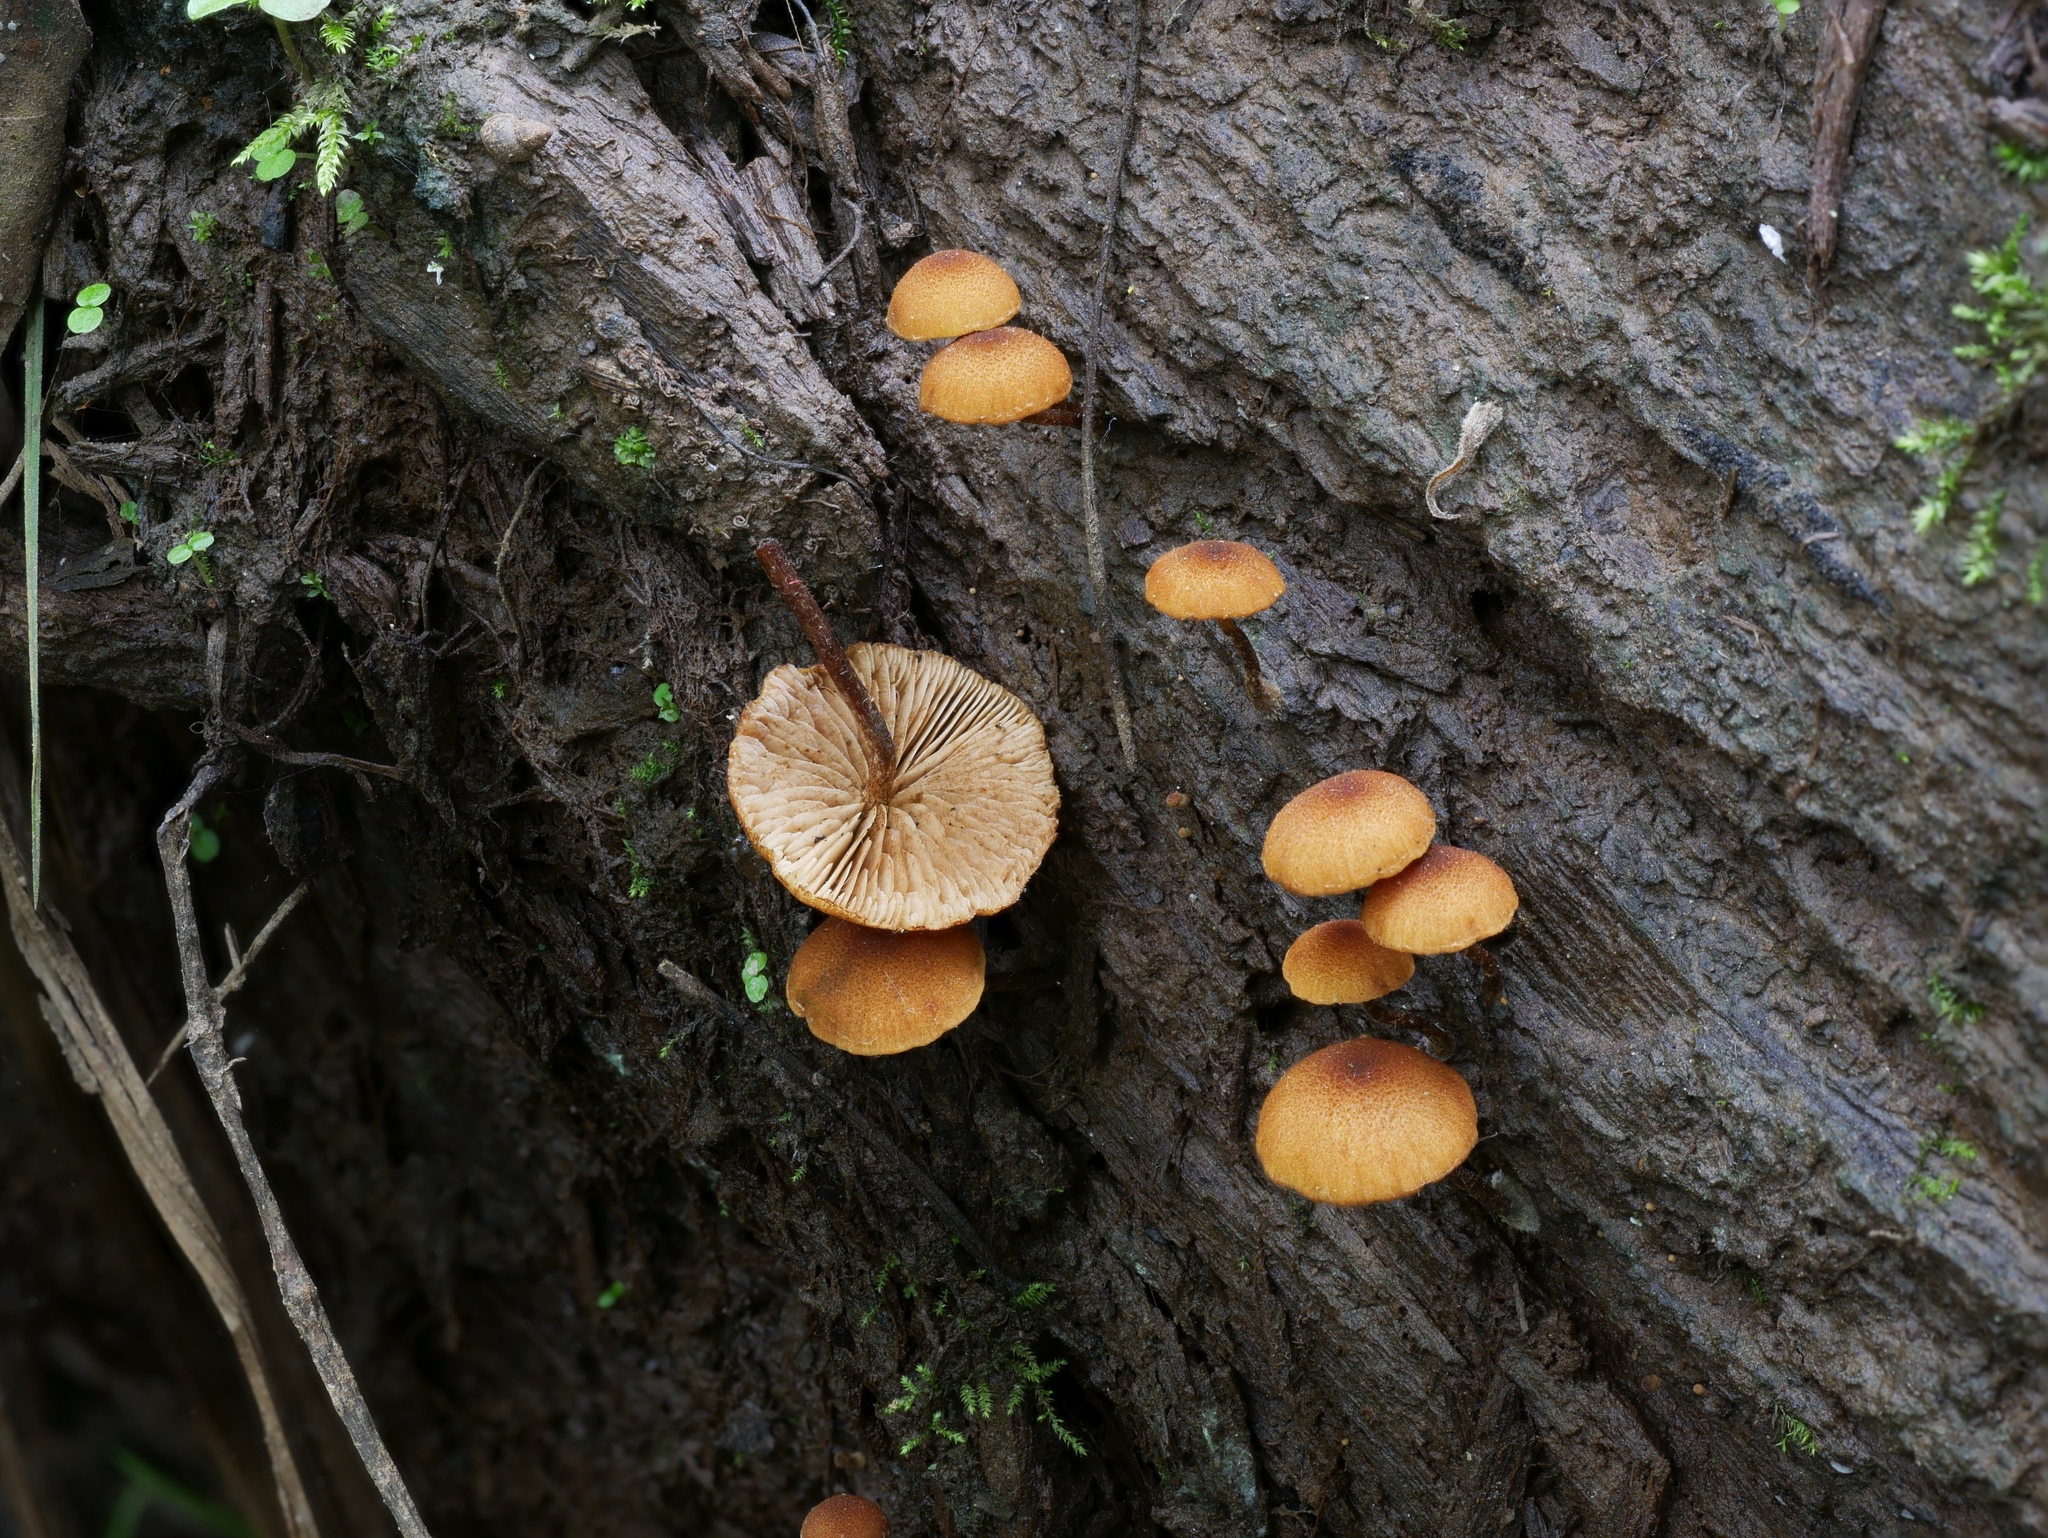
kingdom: Fungi
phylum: Basidiomycota
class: Agaricomycetes
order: Agaricales
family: Strophariaceae
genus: Pholiota
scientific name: Pholiota granulosa
